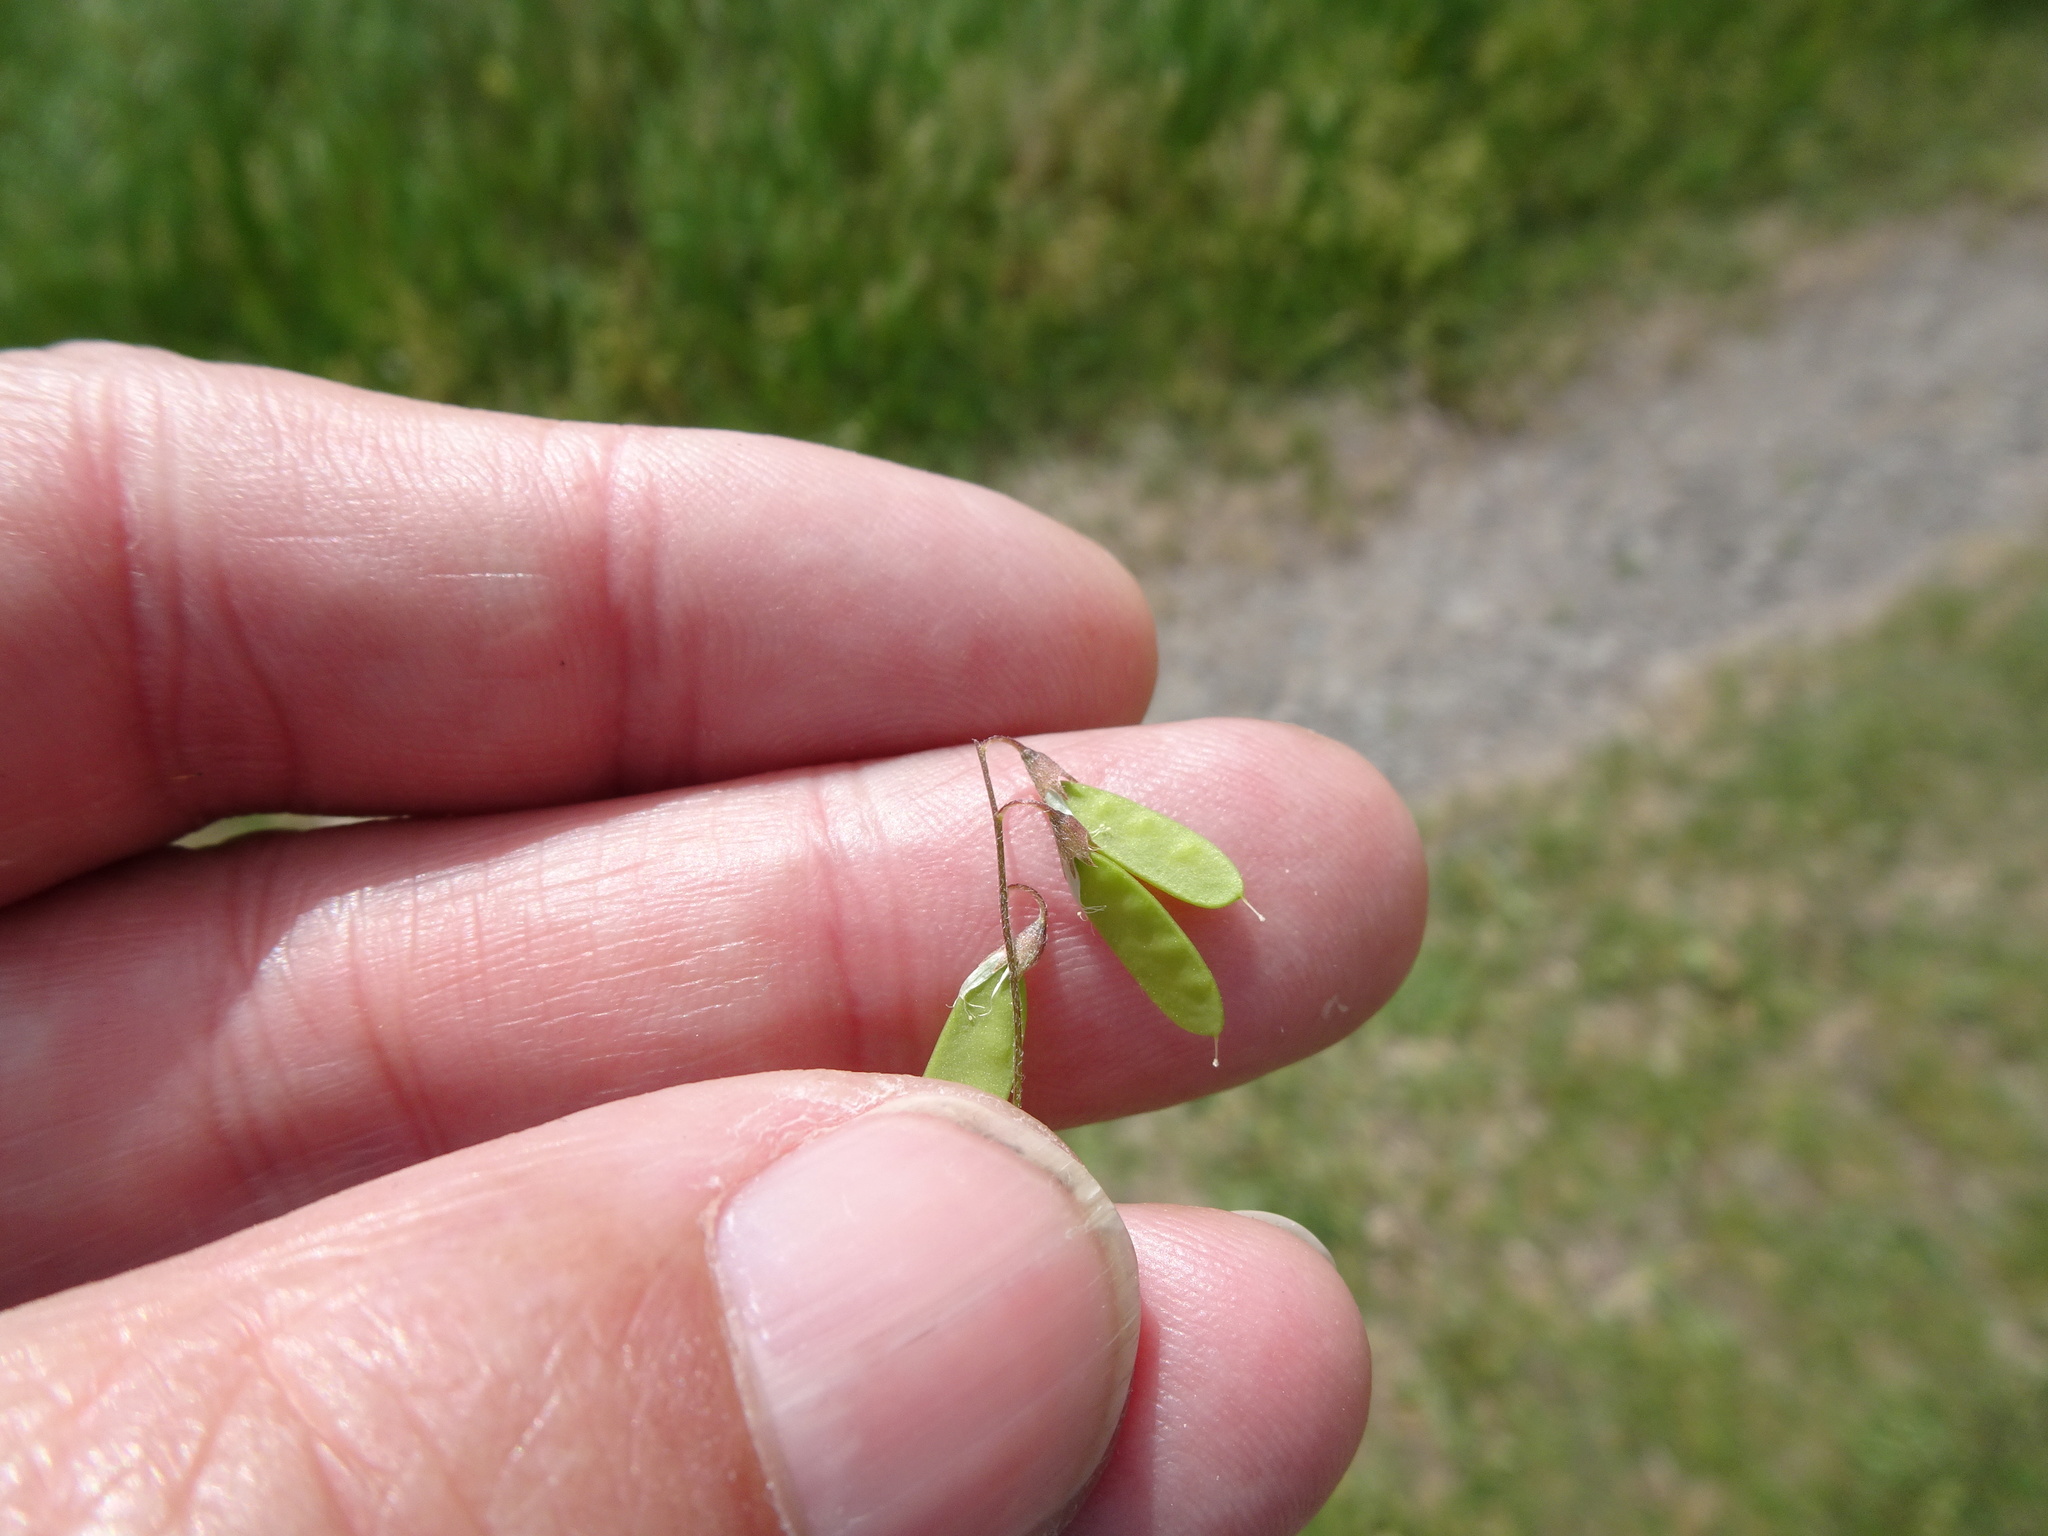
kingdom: Plantae
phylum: Tracheophyta
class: Magnoliopsida
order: Fabales
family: Fabaceae
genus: Vicia
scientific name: Vicia tetrasperma
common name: Smooth tare
